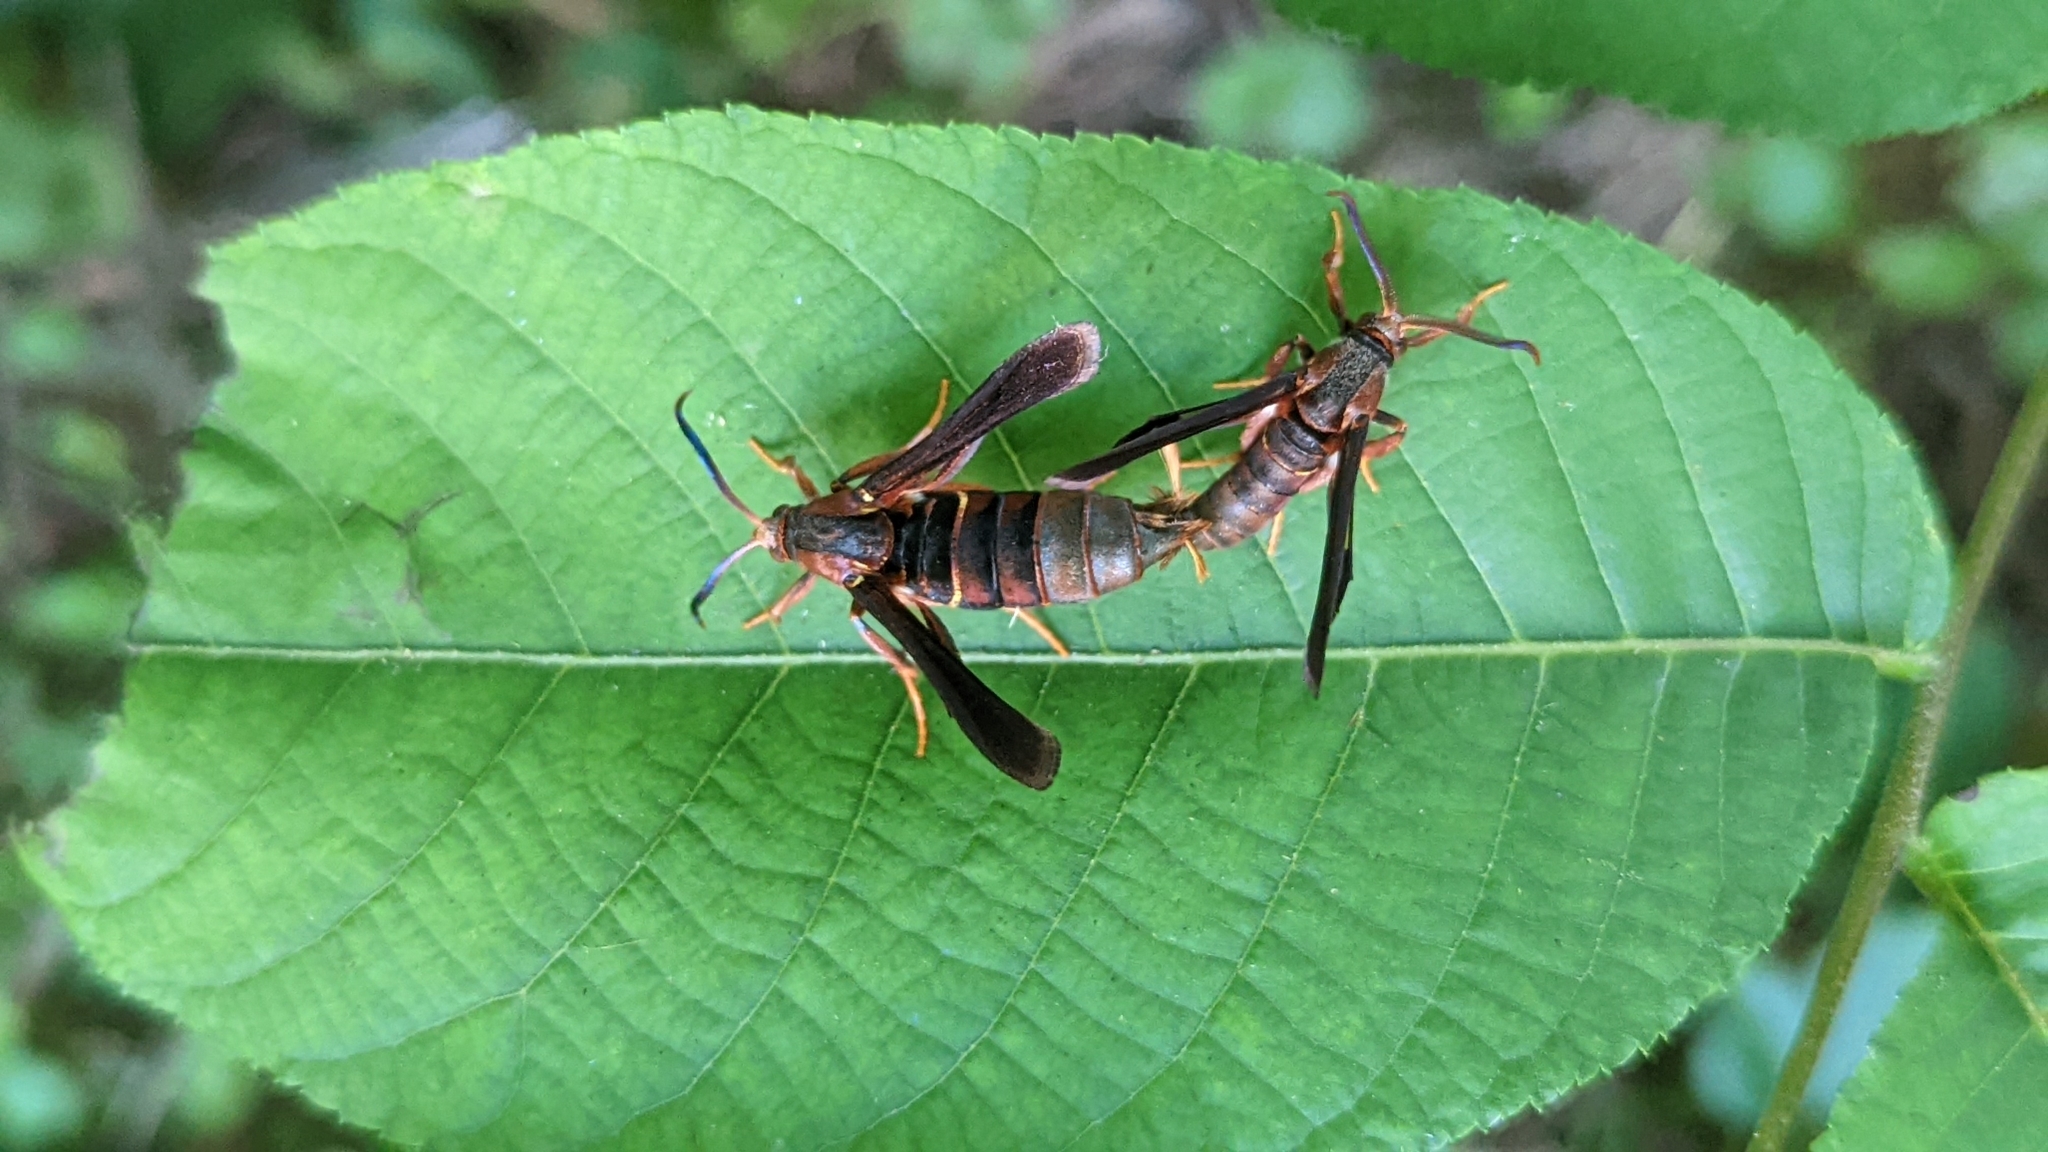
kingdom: Animalia
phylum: Arthropoda
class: Insecta
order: Lepidoptera
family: Sesiidae
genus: Vitacea
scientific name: Vitacea polistiformis
